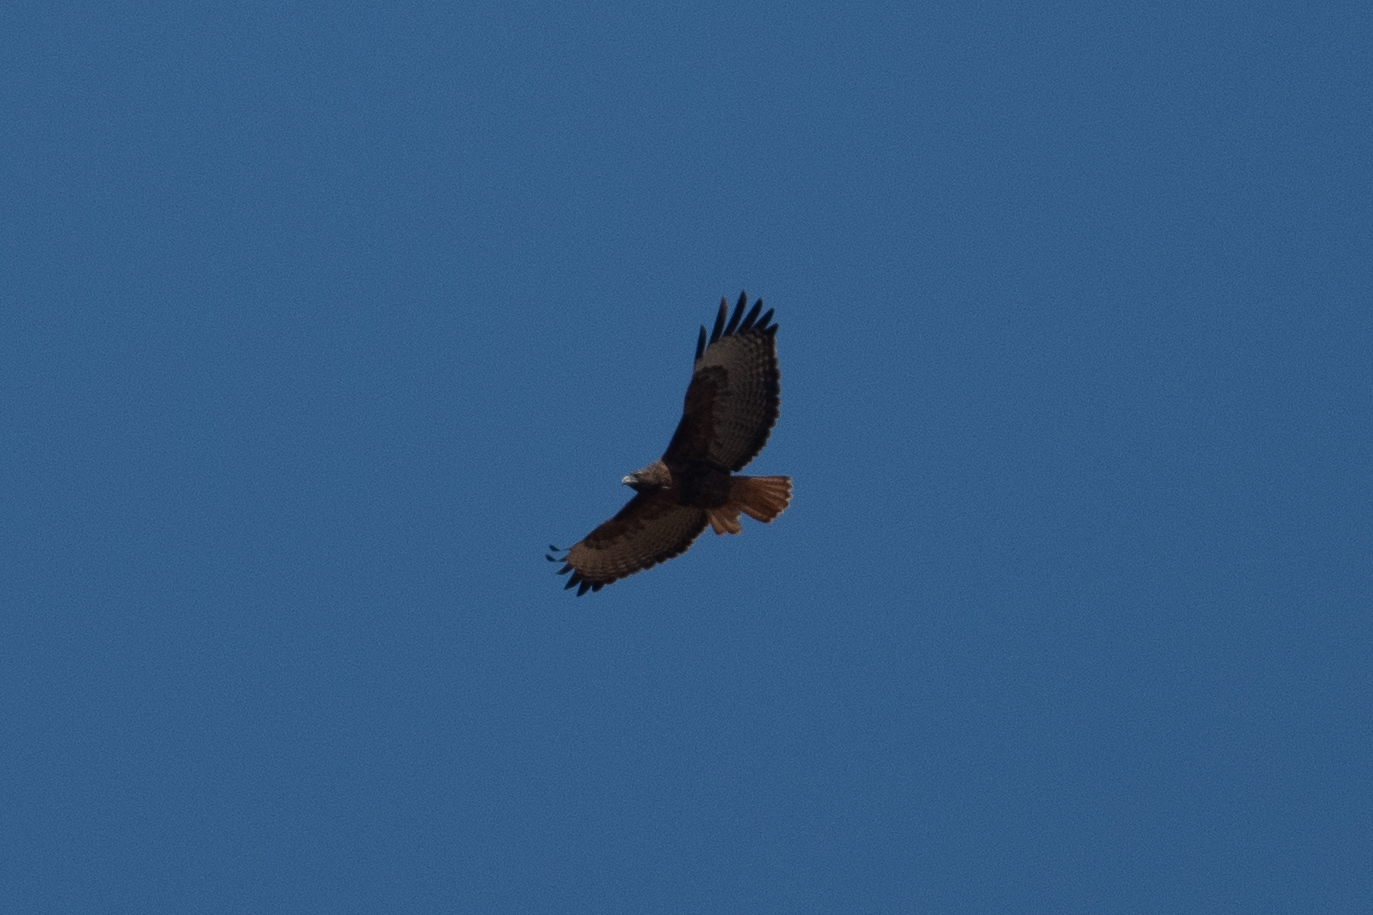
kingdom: Animalia
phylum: Chordata
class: Aves
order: Accipitriformes
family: Accipitridae
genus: Buteo
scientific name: Buteo jamaicensis
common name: Red-tailed hawk
